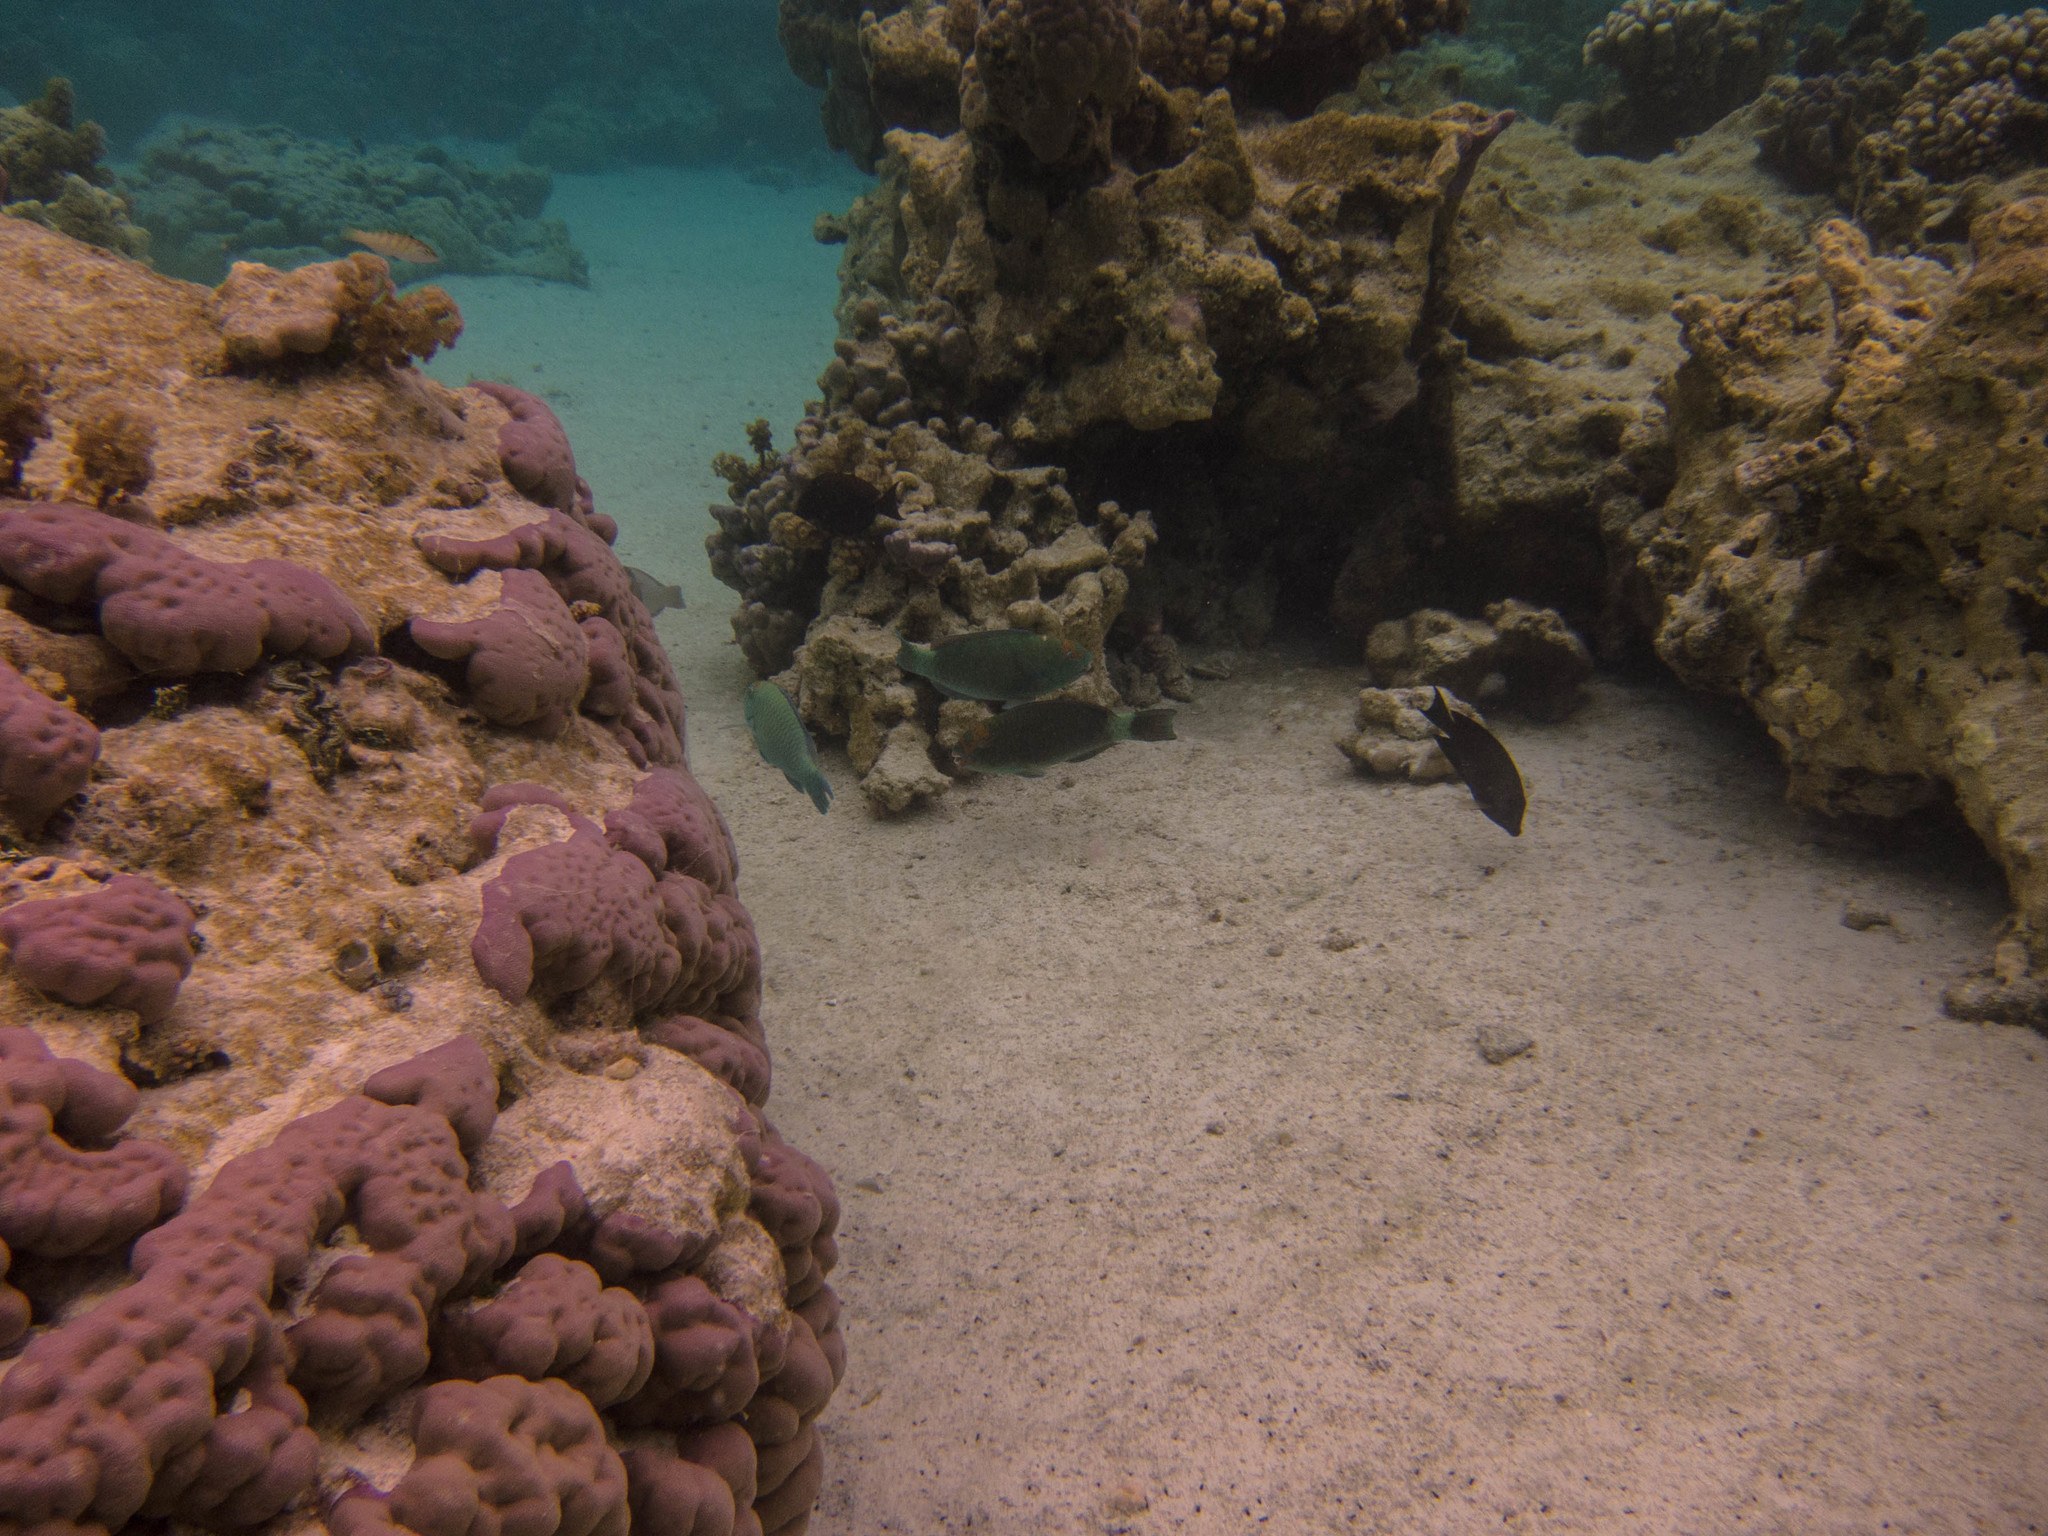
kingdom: Animalia
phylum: Chordata
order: Perciformes
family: Scaridae
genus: Chlorurus
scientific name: Chlorurus spilurus
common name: Bullethead parrotfish
